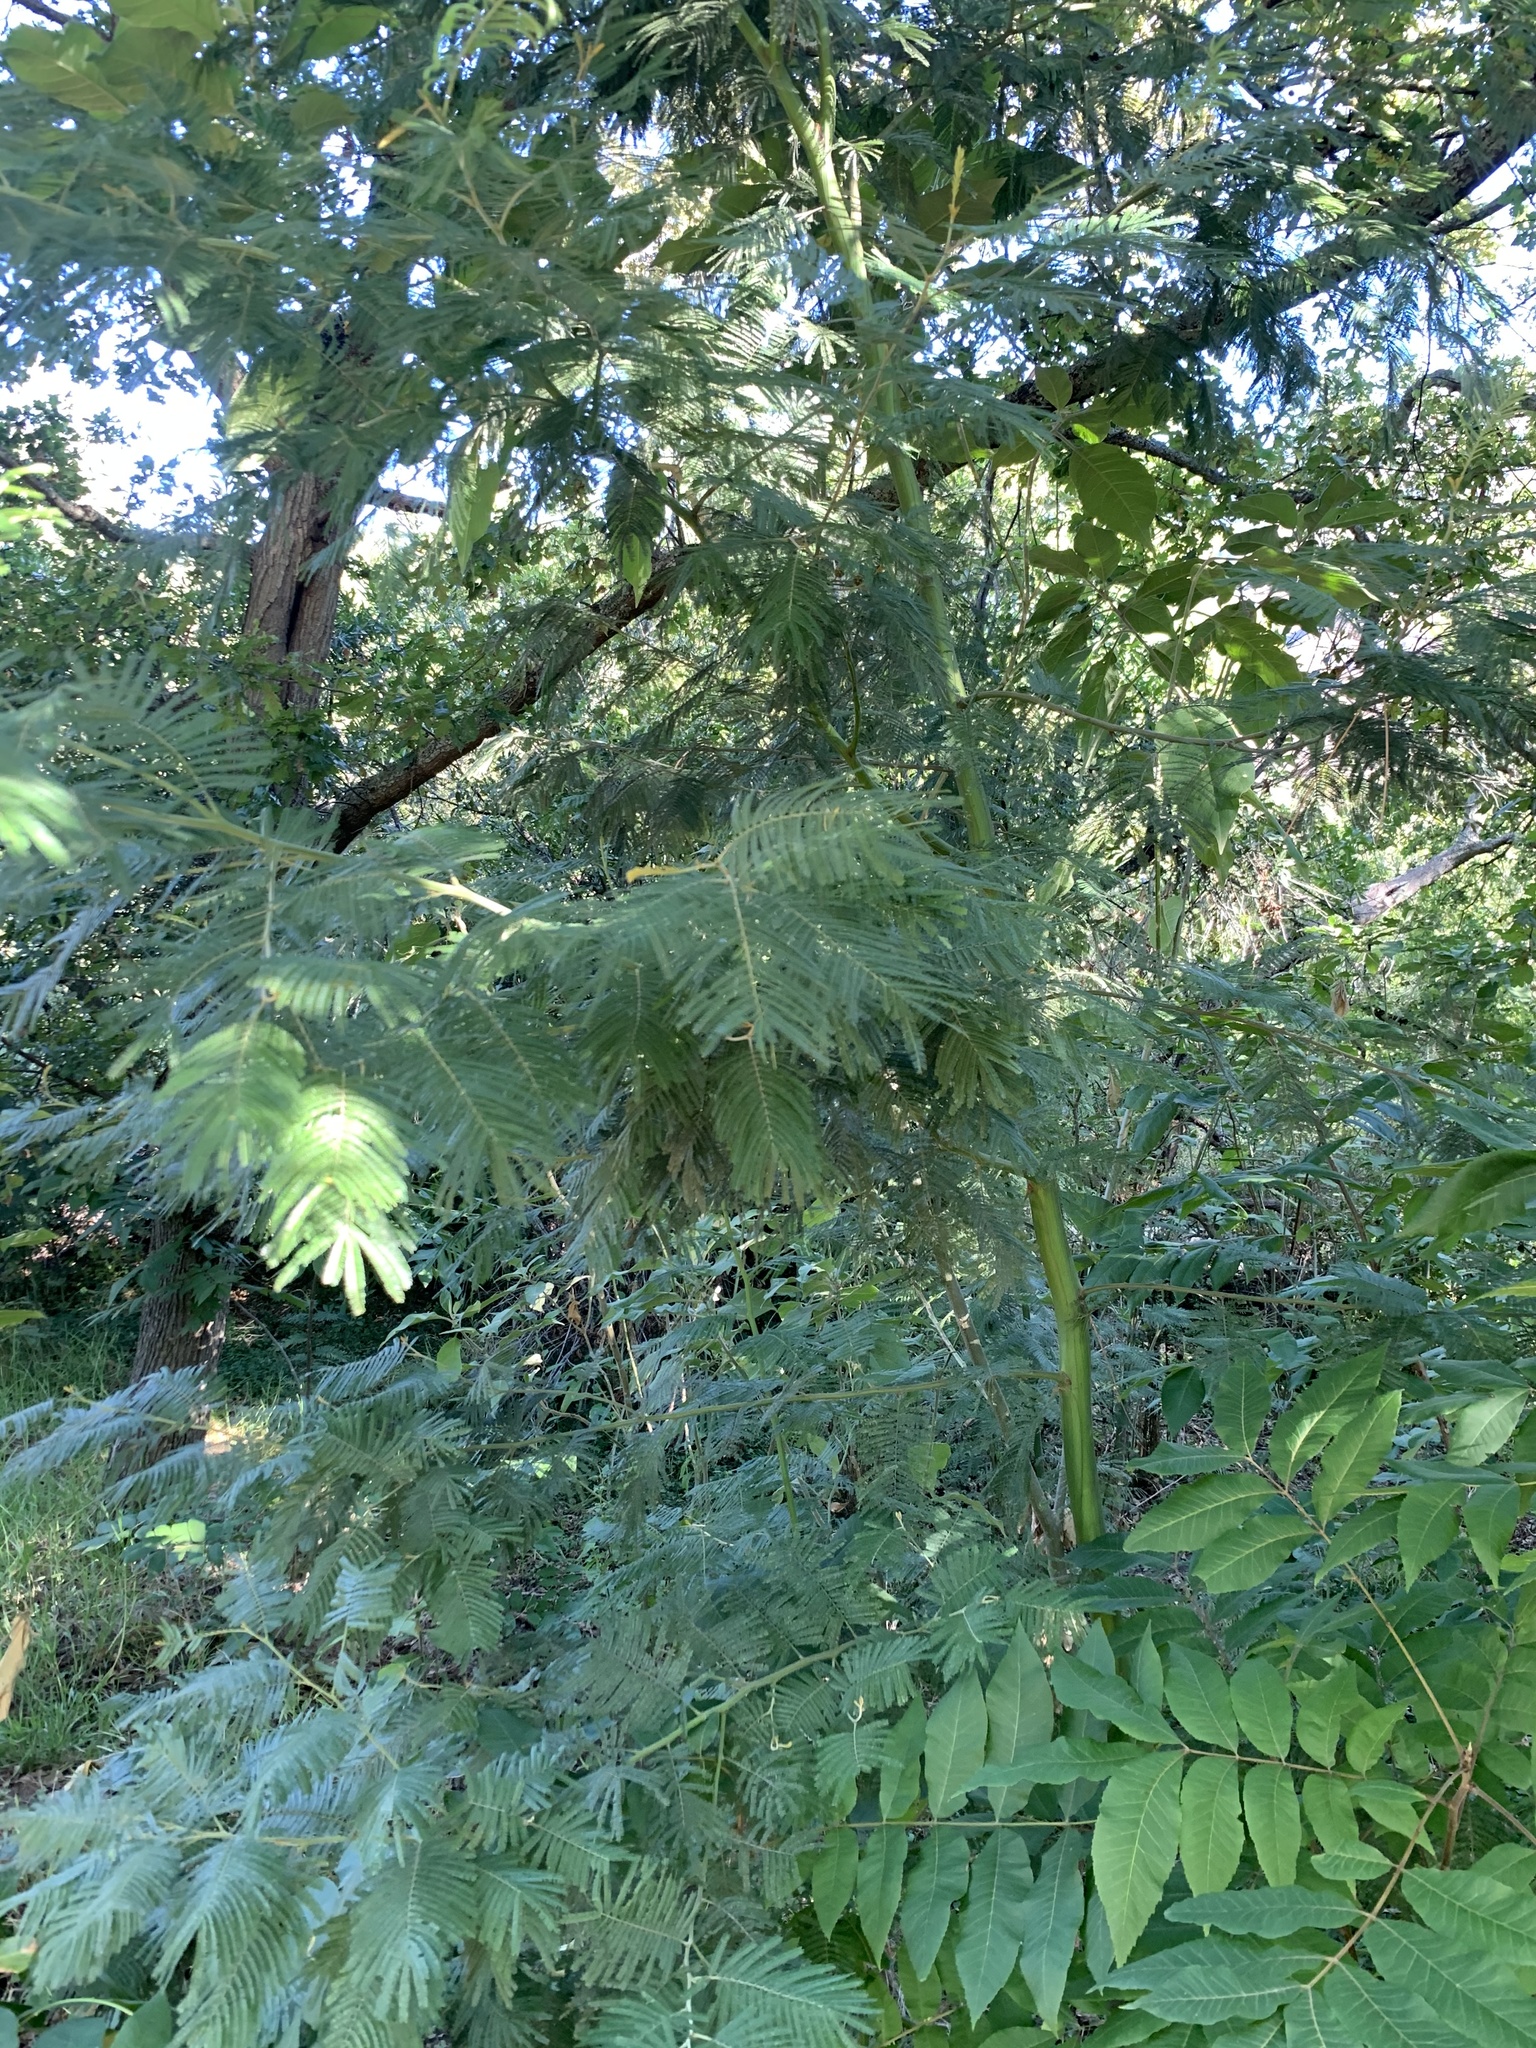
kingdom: Plantae
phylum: Tracheophyta
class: Magnoliopsida
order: Fabales
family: Fabaceae
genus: Acacia
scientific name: Acacia mearnsii
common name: Black wattle
